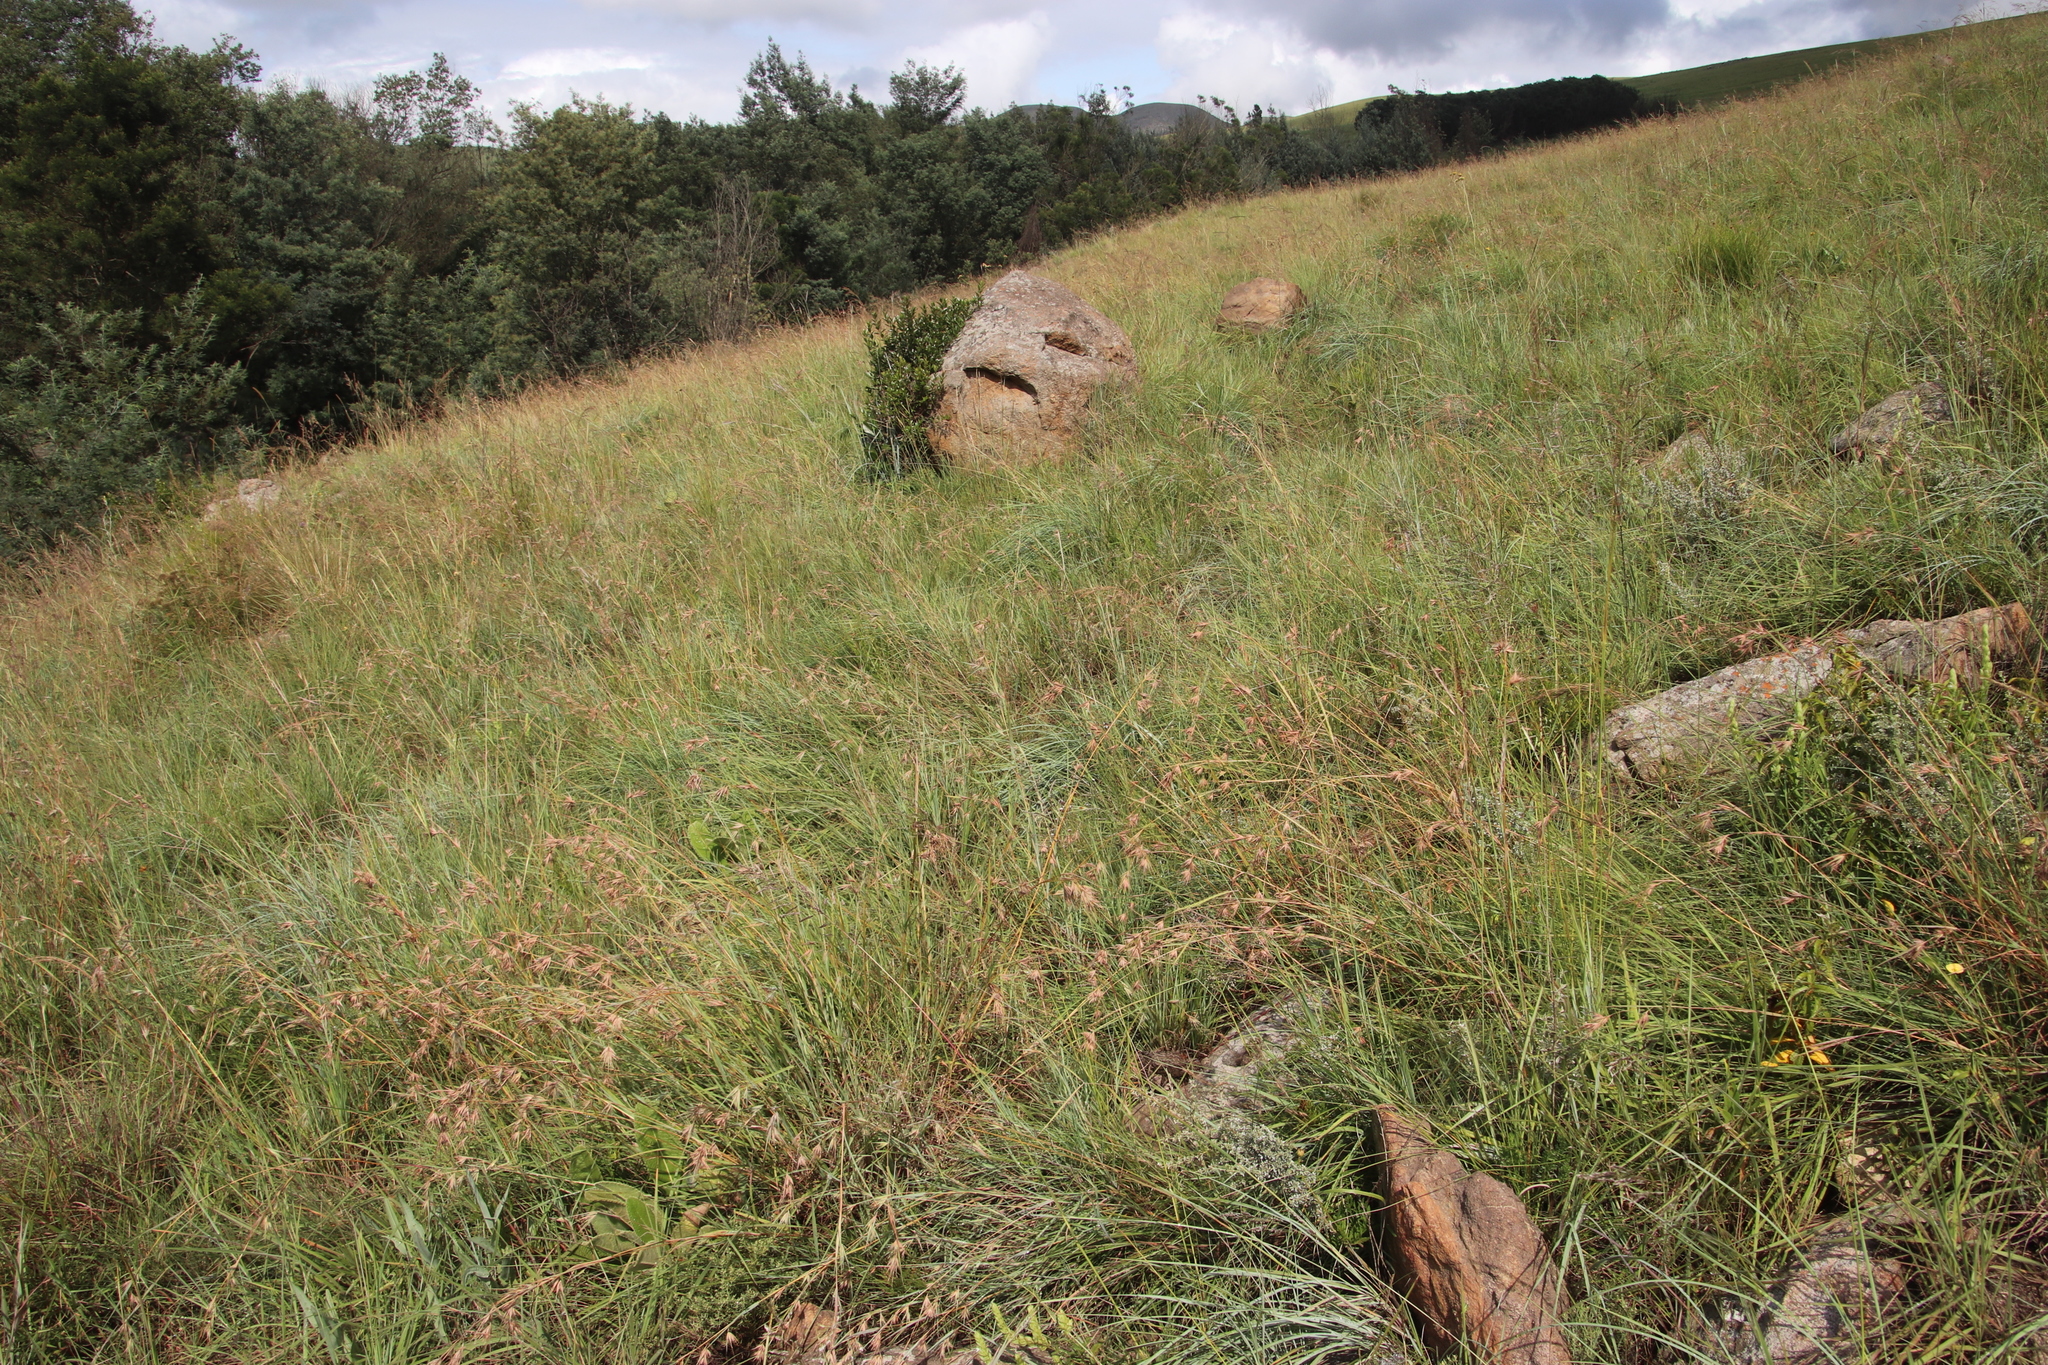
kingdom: Plantae
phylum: Tracheophyta
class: Liliopsida
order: Poales
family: Poaceae
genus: Themeda
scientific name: Themeda triandra
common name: Kangaroo grass
